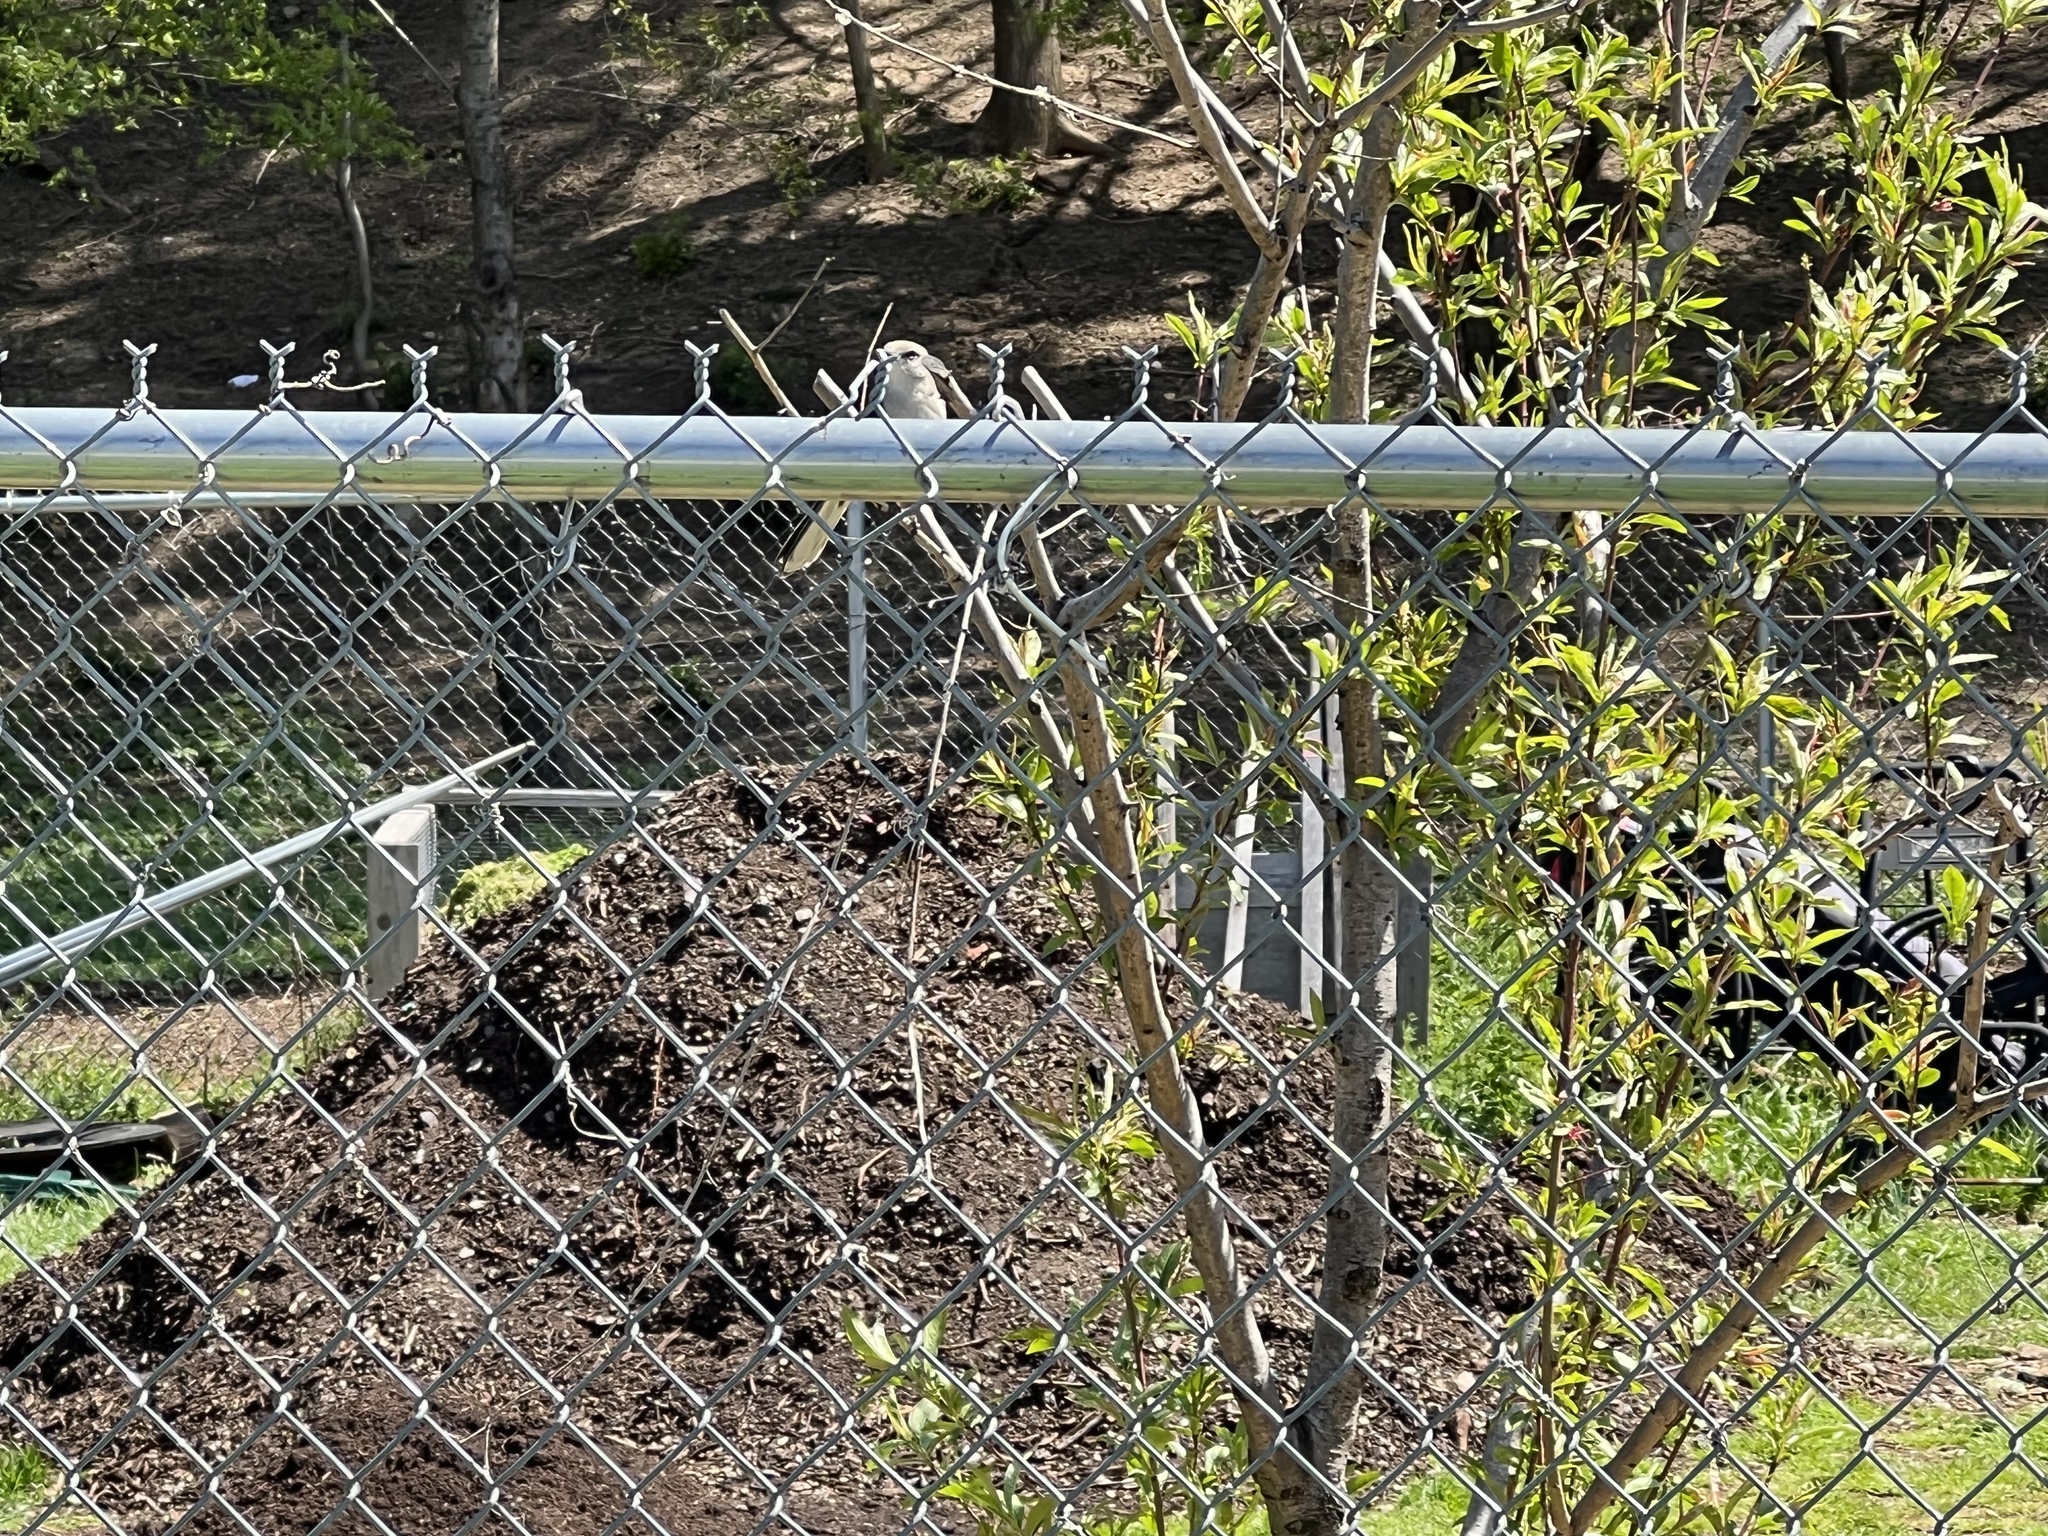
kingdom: Animalia
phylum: Chordata
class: Aves
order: Passeriformes
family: Mimidae
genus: Mimus
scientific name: Mimus polyglottos
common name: Northern mockingbird
